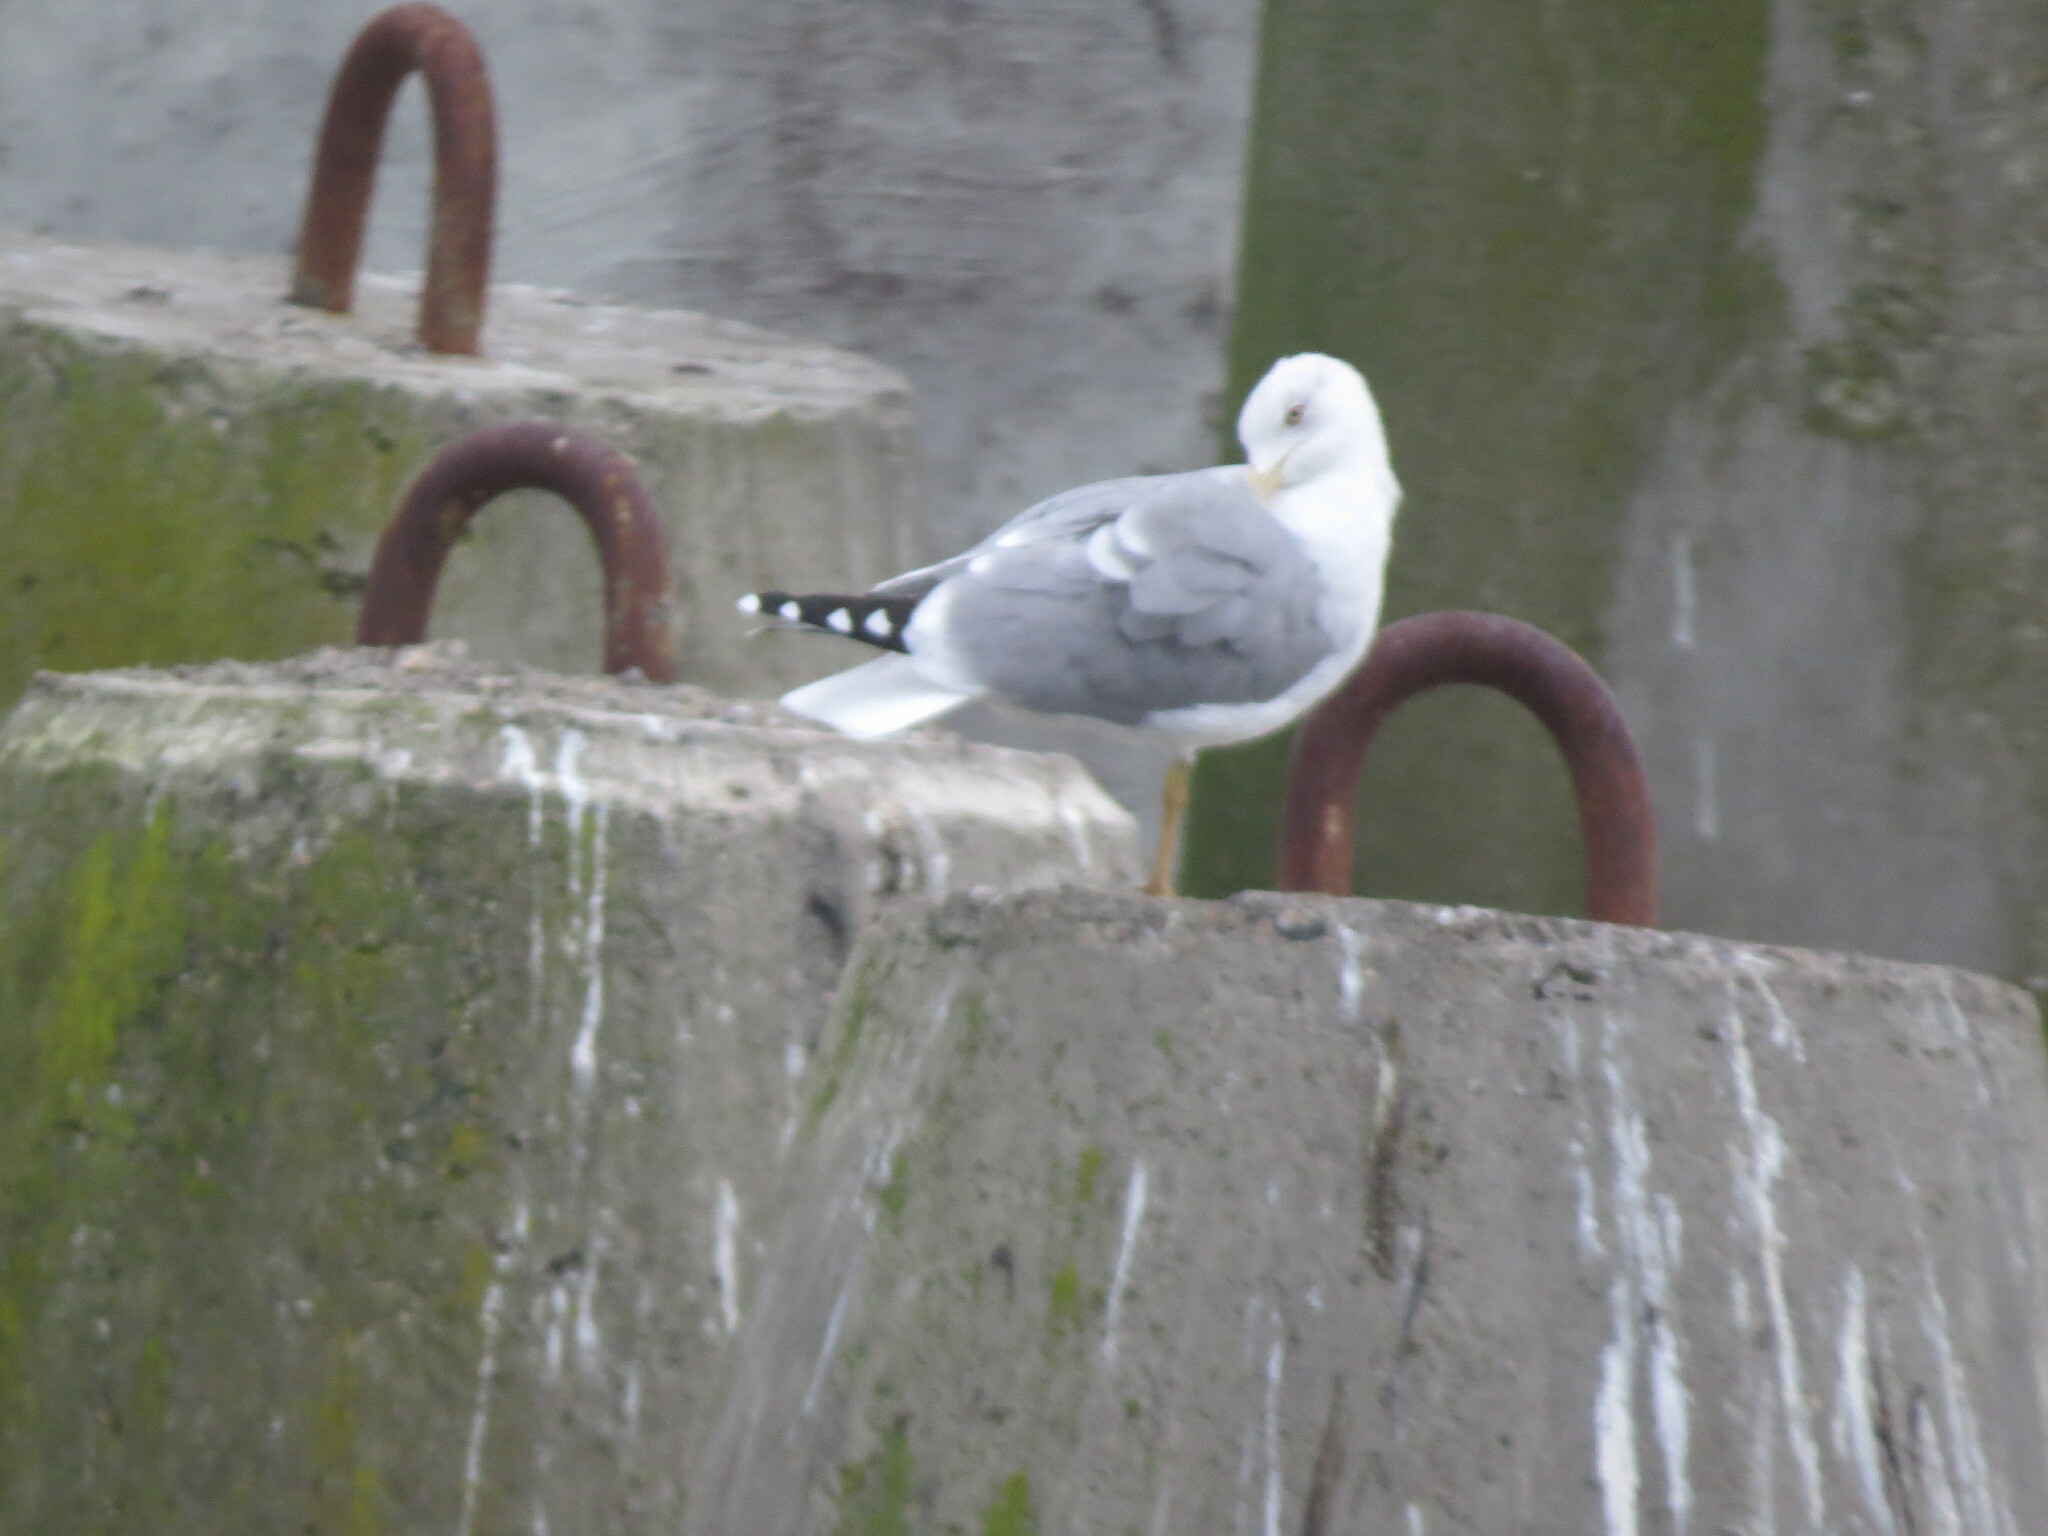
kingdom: Animalia
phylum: Chordata
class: Aves
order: Charadriiformes
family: Laridae
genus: Larus
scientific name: Larus michahellis
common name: Yellow-legged gull
